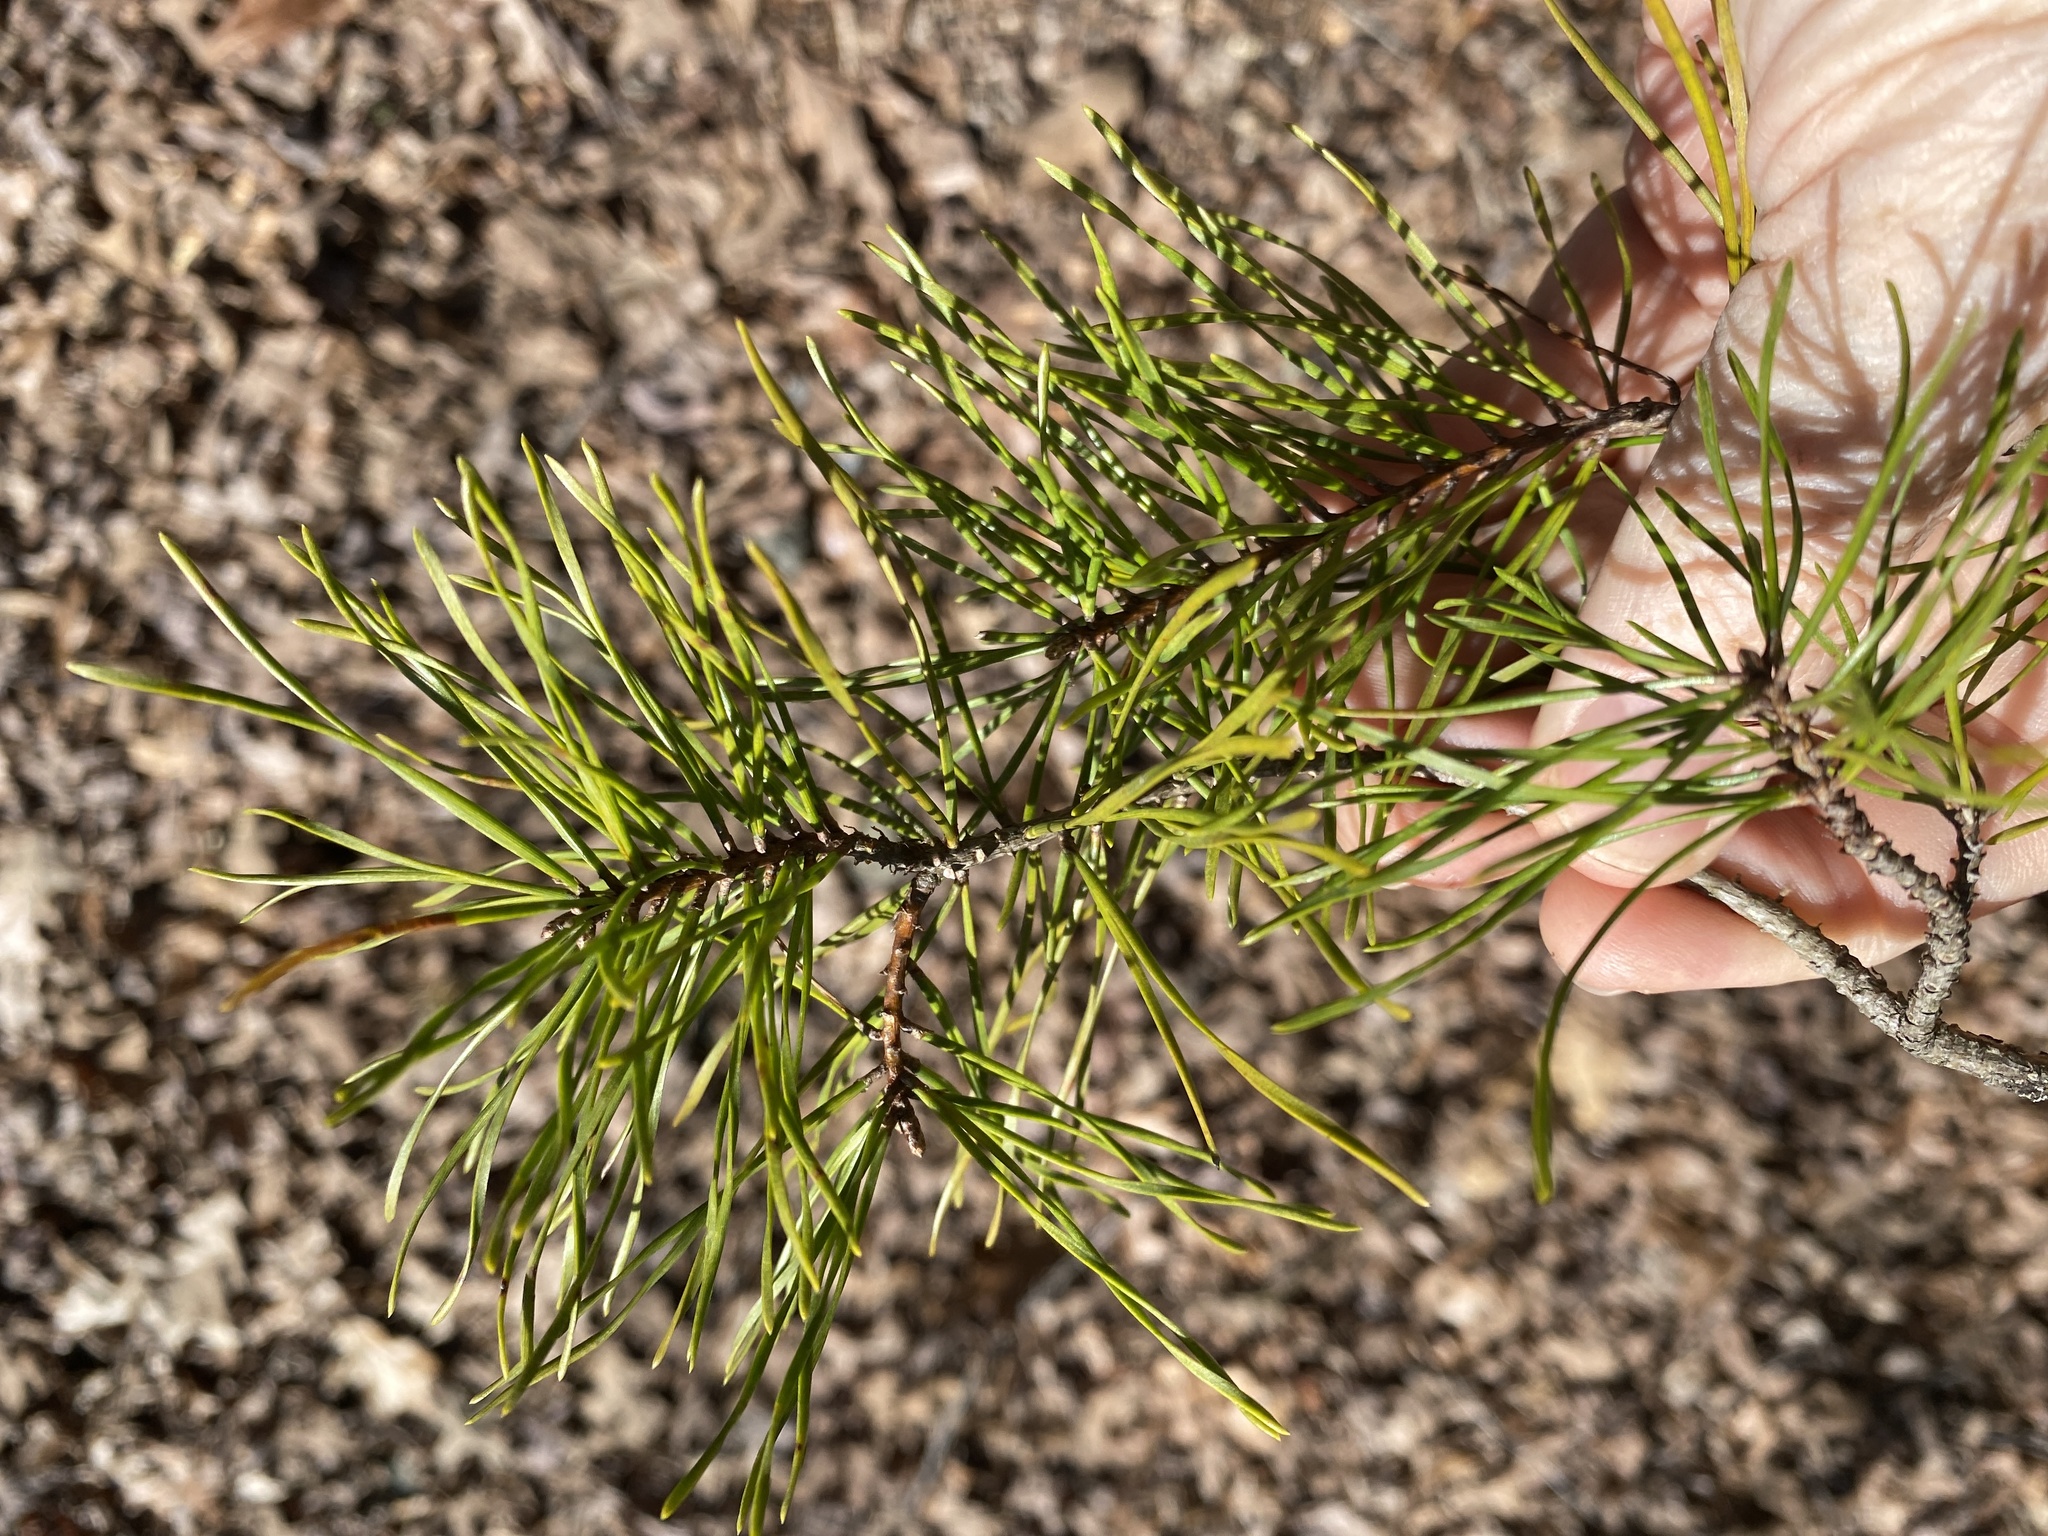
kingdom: Plantae
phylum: Tracheophyta
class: Pinopsida
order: Pinales
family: Pinaceae
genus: Pinus
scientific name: Pinus virginiana
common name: Scrub pine
